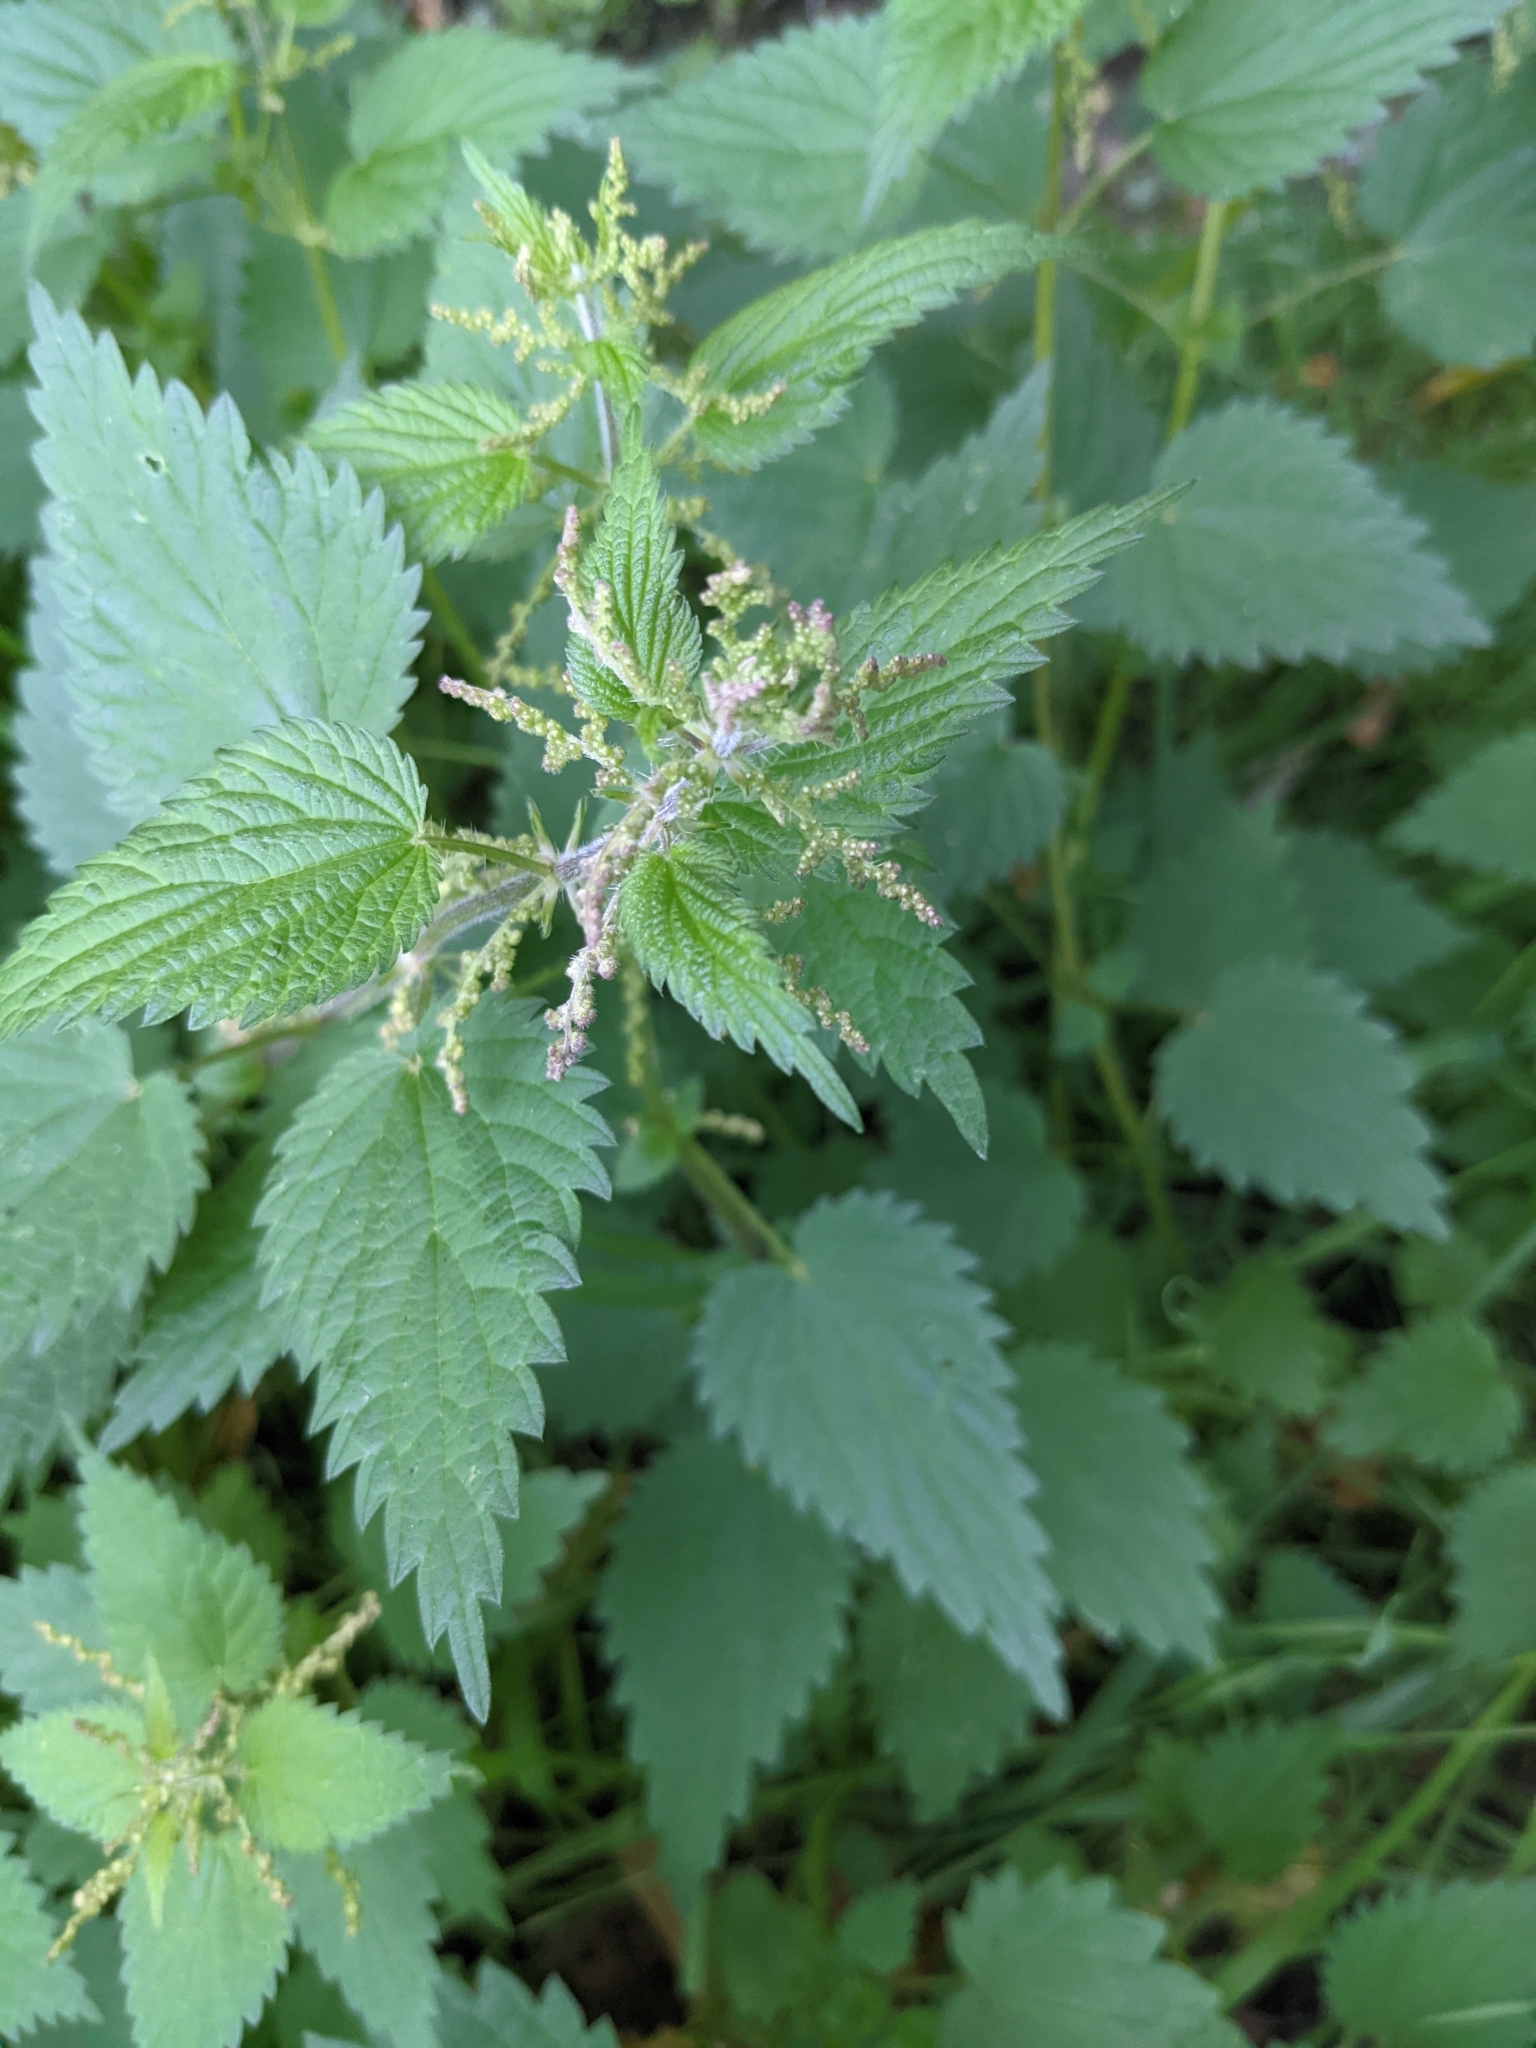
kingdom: Plantae
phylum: Tracheophyta
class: Magnoliopsida
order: Rosales
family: Urticaceae
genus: Urtica
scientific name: Urtica dioica
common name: Common nettle
